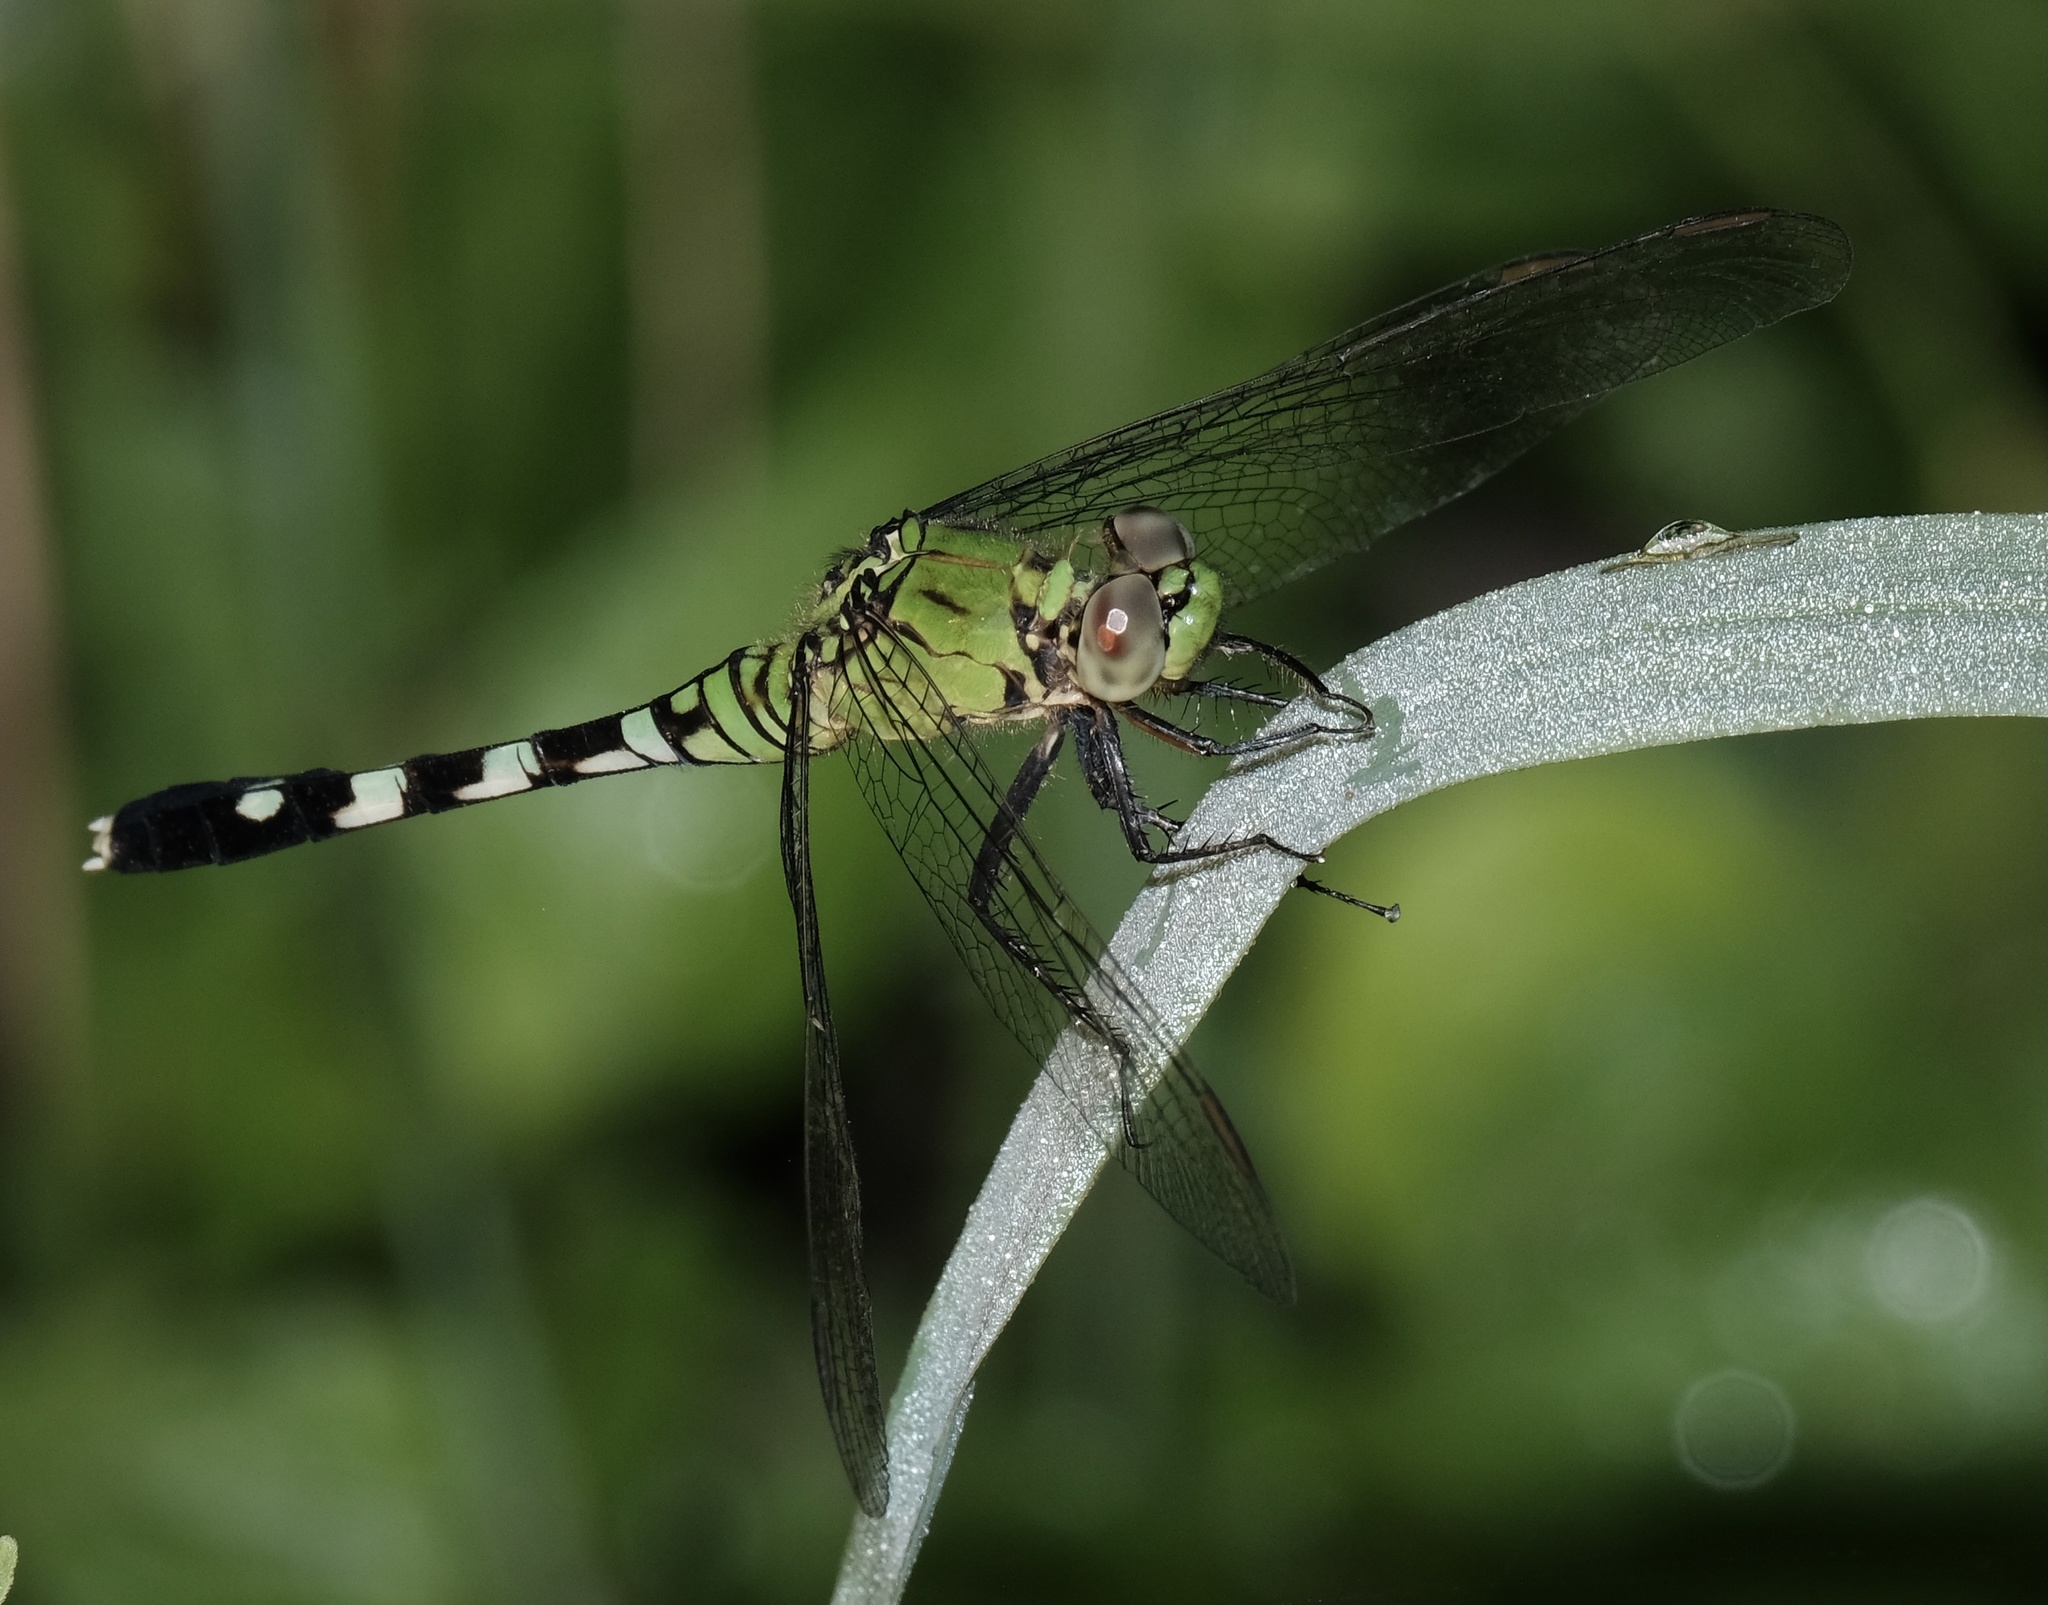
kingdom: Animalia
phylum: Arthropoda
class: Insecta
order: Odonata
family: Libellulidae
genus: Erythemis
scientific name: Erythemis simplicicollis
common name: Eastern pondhawk
